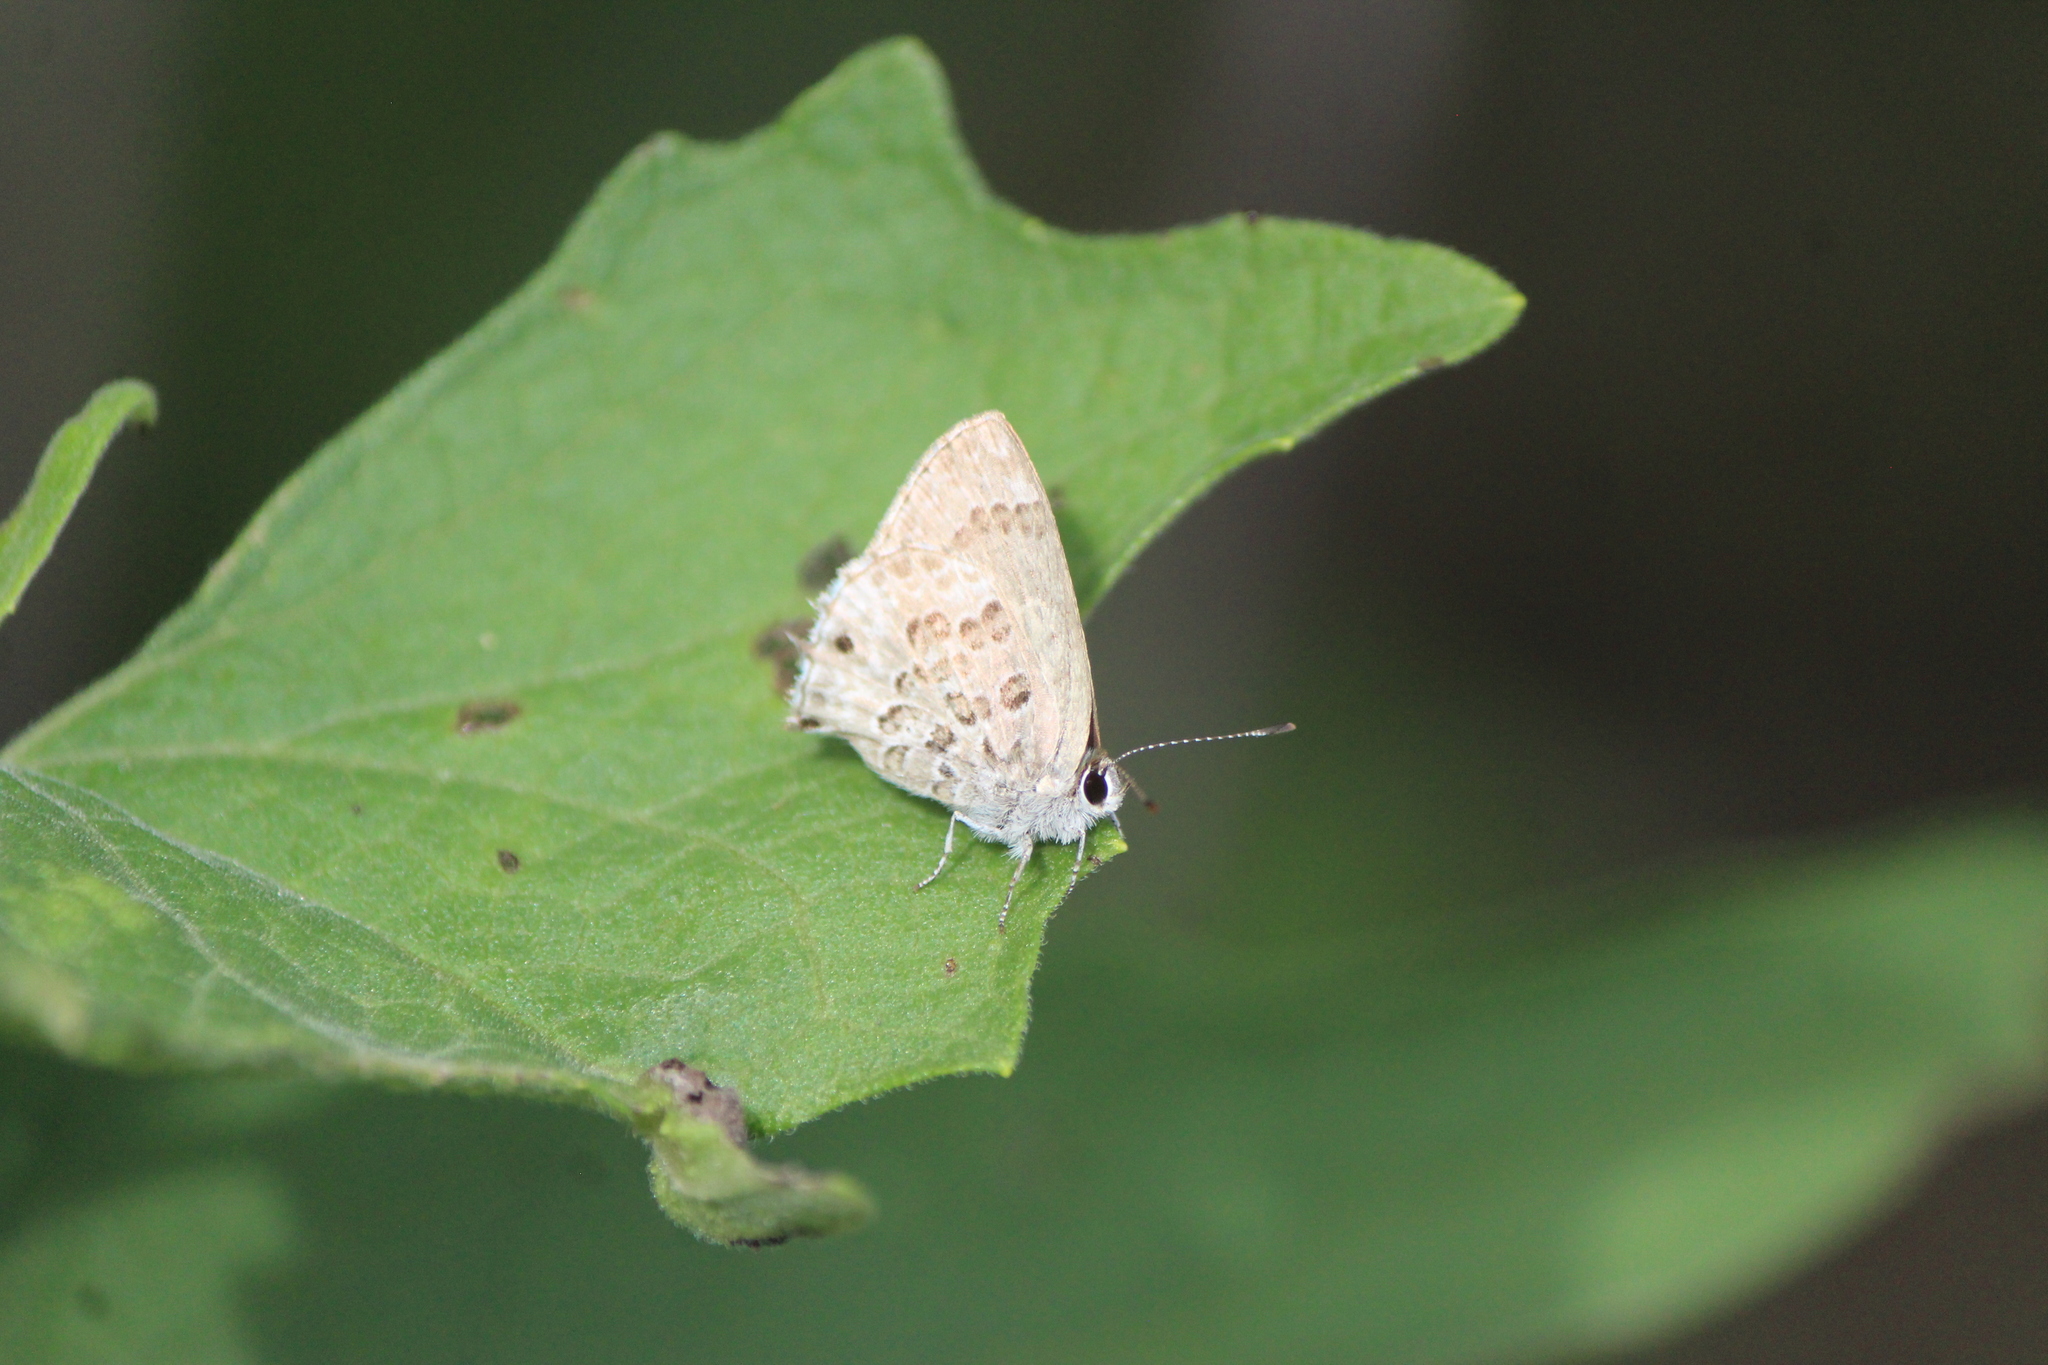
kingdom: Animalia
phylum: Arthropoda
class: Insecta
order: Lepidoptera
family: Lycaenidae
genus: Strymon
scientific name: Strymon astiocha
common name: Gray-spotted scrub-hairstreak
